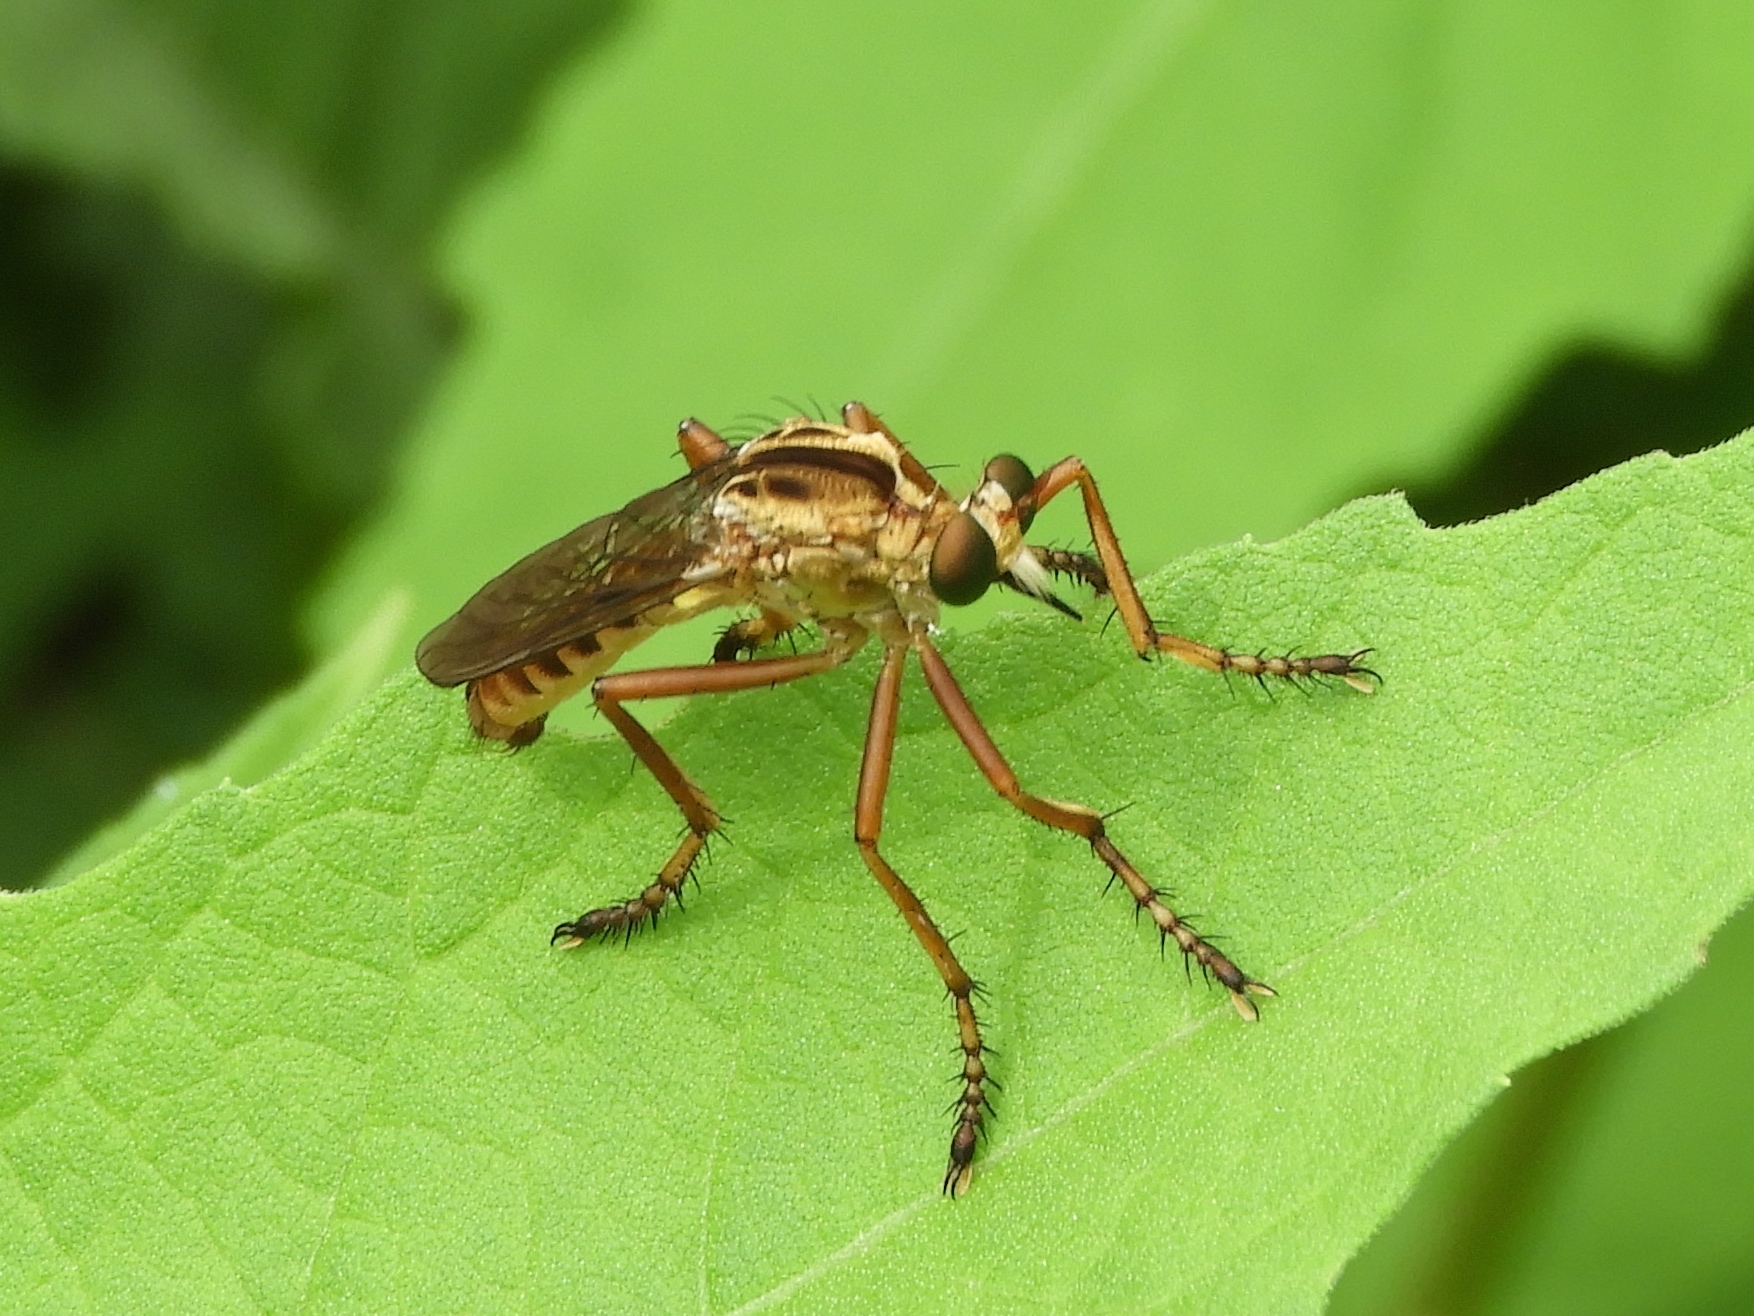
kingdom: Animalia
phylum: Arthropoda
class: Insecta
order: Diptera
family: Asilidae
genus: Diogmites
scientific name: Diogmites
